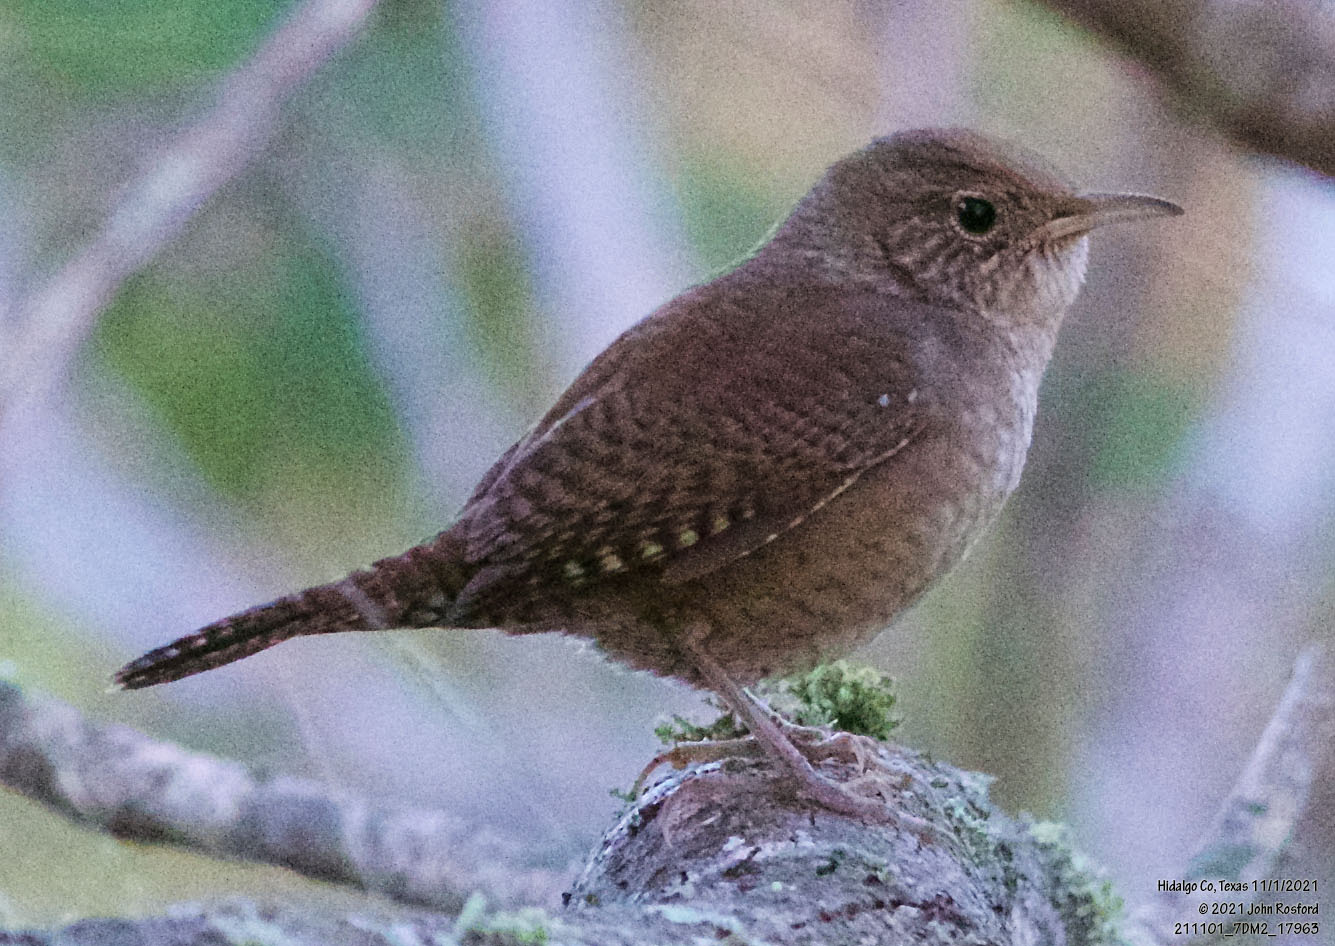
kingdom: Animalia
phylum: Chordata
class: Aves
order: Passeriformes
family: Troglodytidae
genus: Troglodytes
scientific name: Troglodytes aedon
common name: House wren
